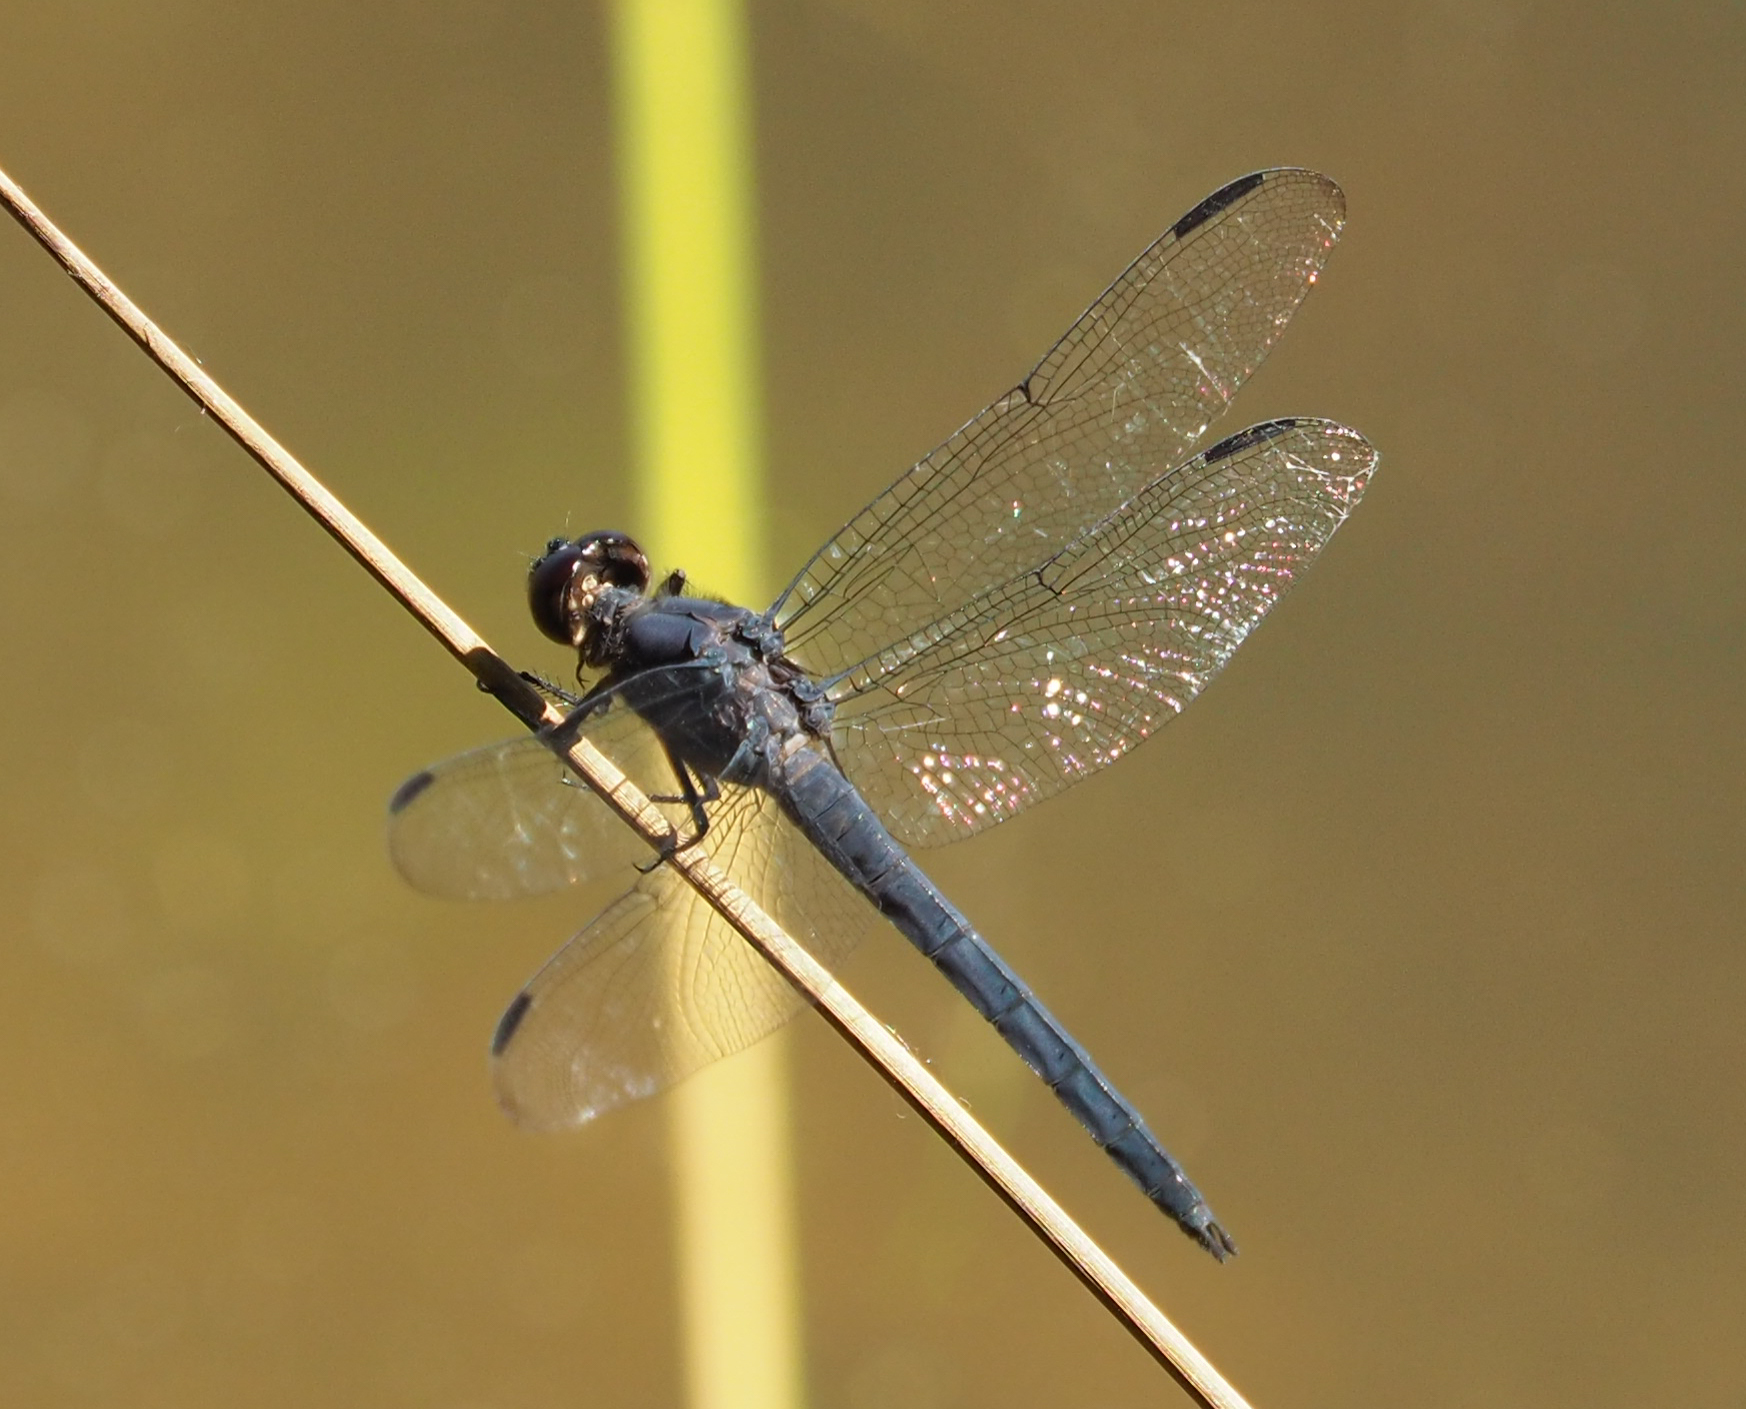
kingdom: Animalia
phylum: Arthropoda
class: Insecta
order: Odonata
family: Libellulidae
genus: Libellula
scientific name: Libellula incesta
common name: Slaty skimmer
